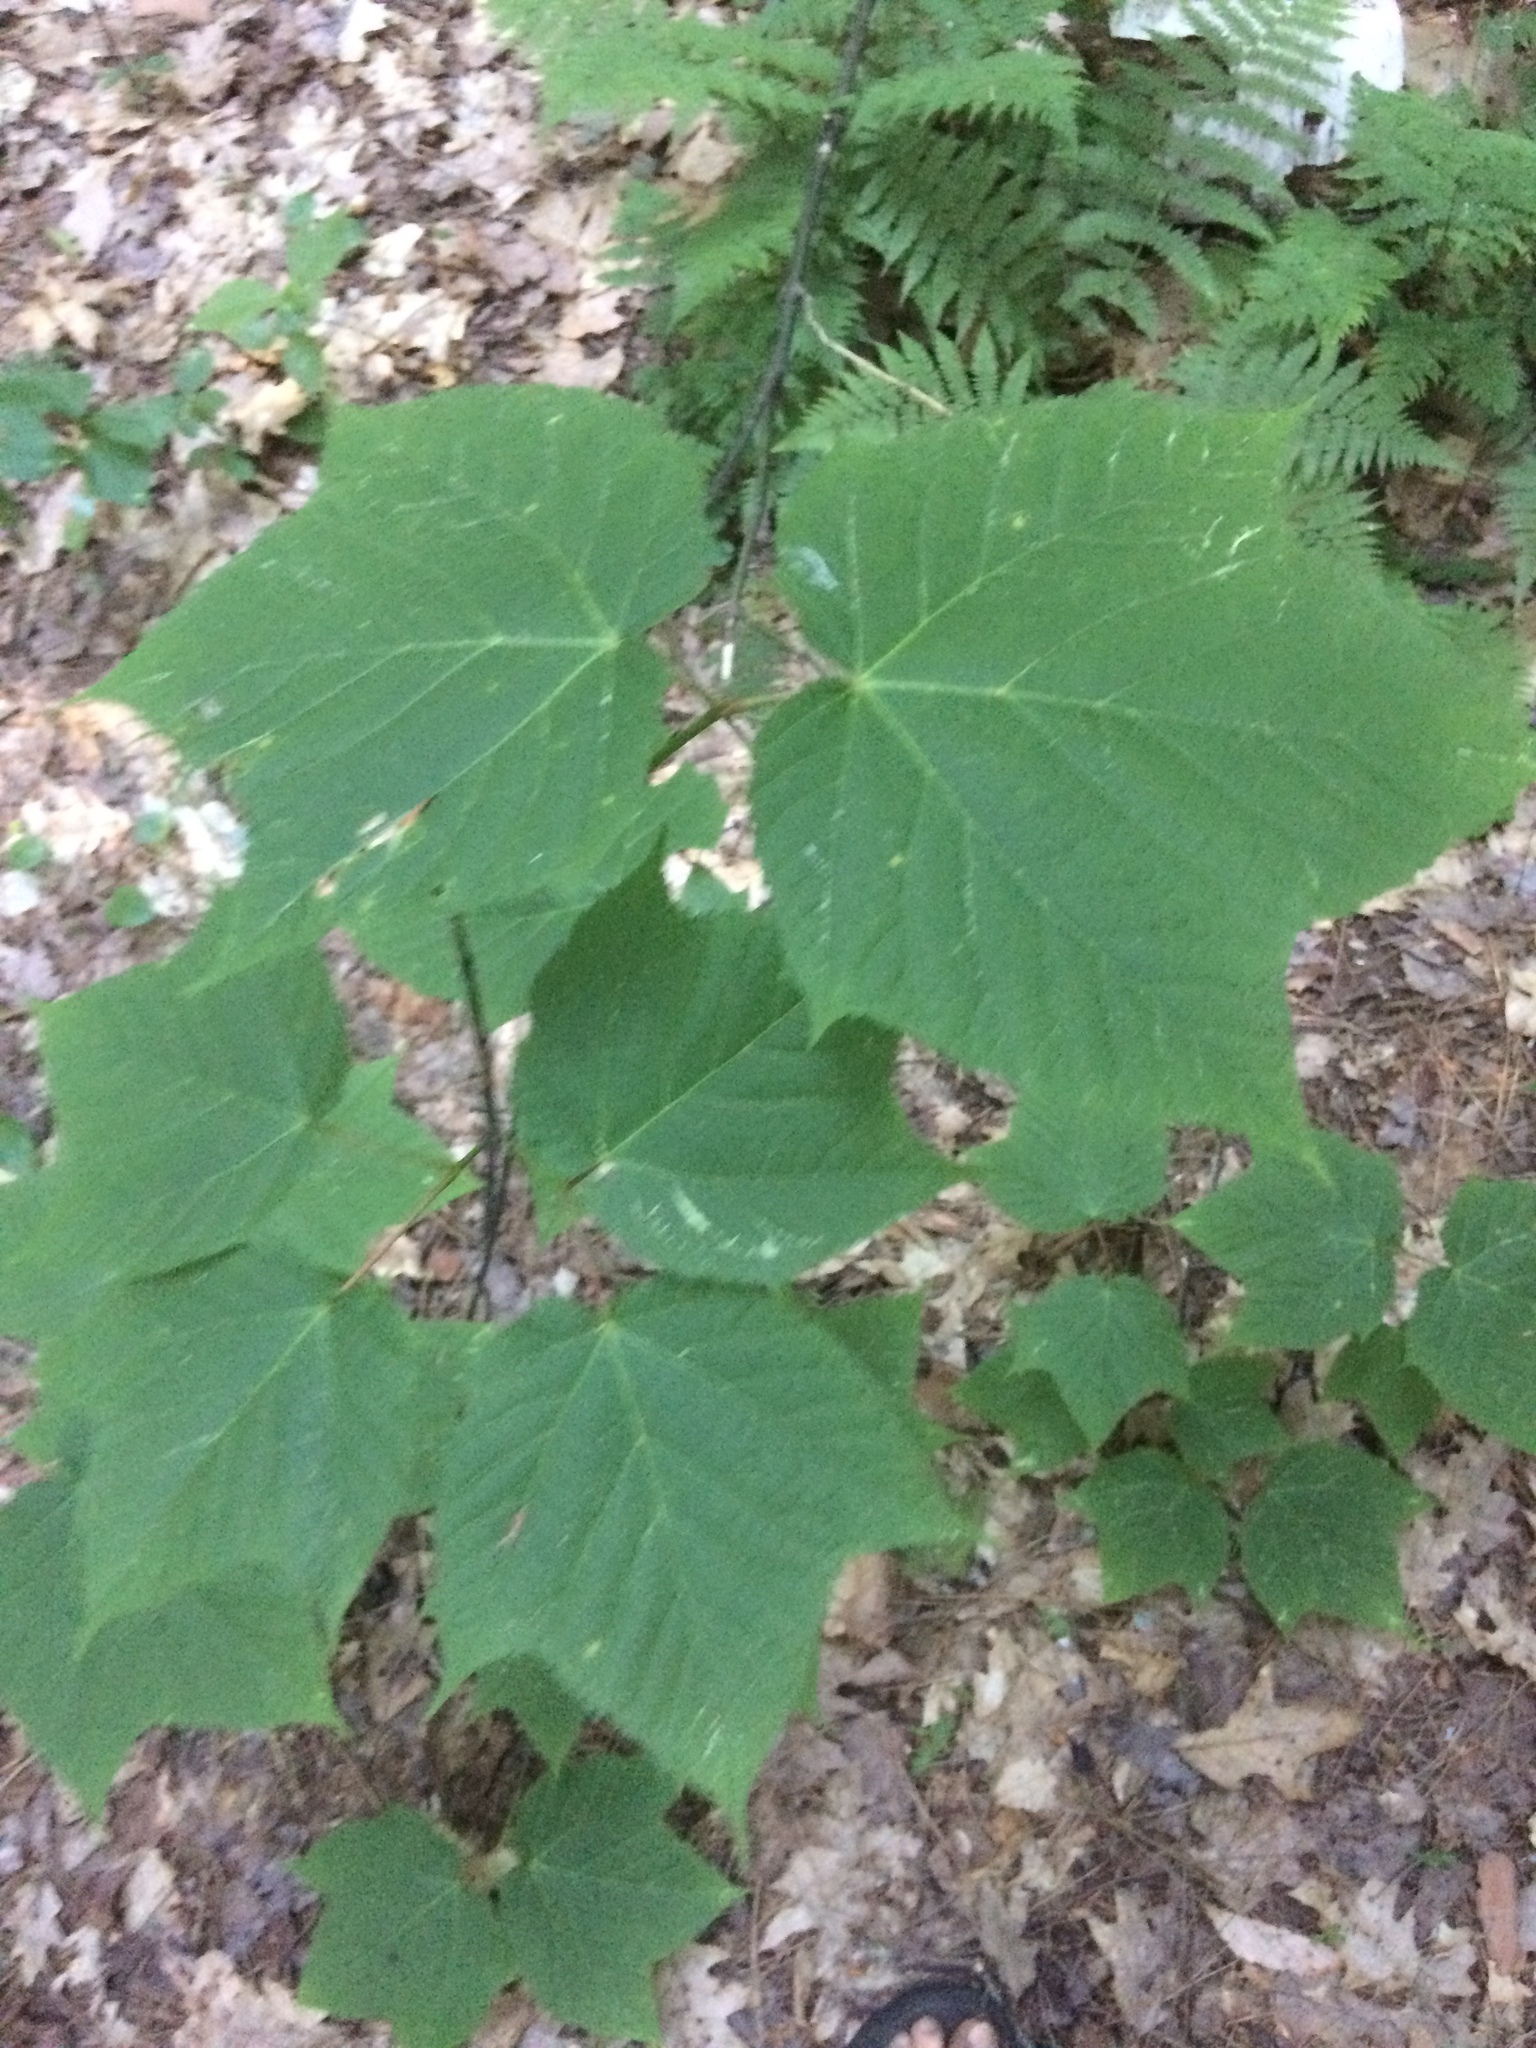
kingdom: Plantae
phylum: Tracheophyta
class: Magnoliopsida
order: Sapindales
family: Sapindaceae
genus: Acer
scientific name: Acer pensylvanicum
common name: Moosewood
